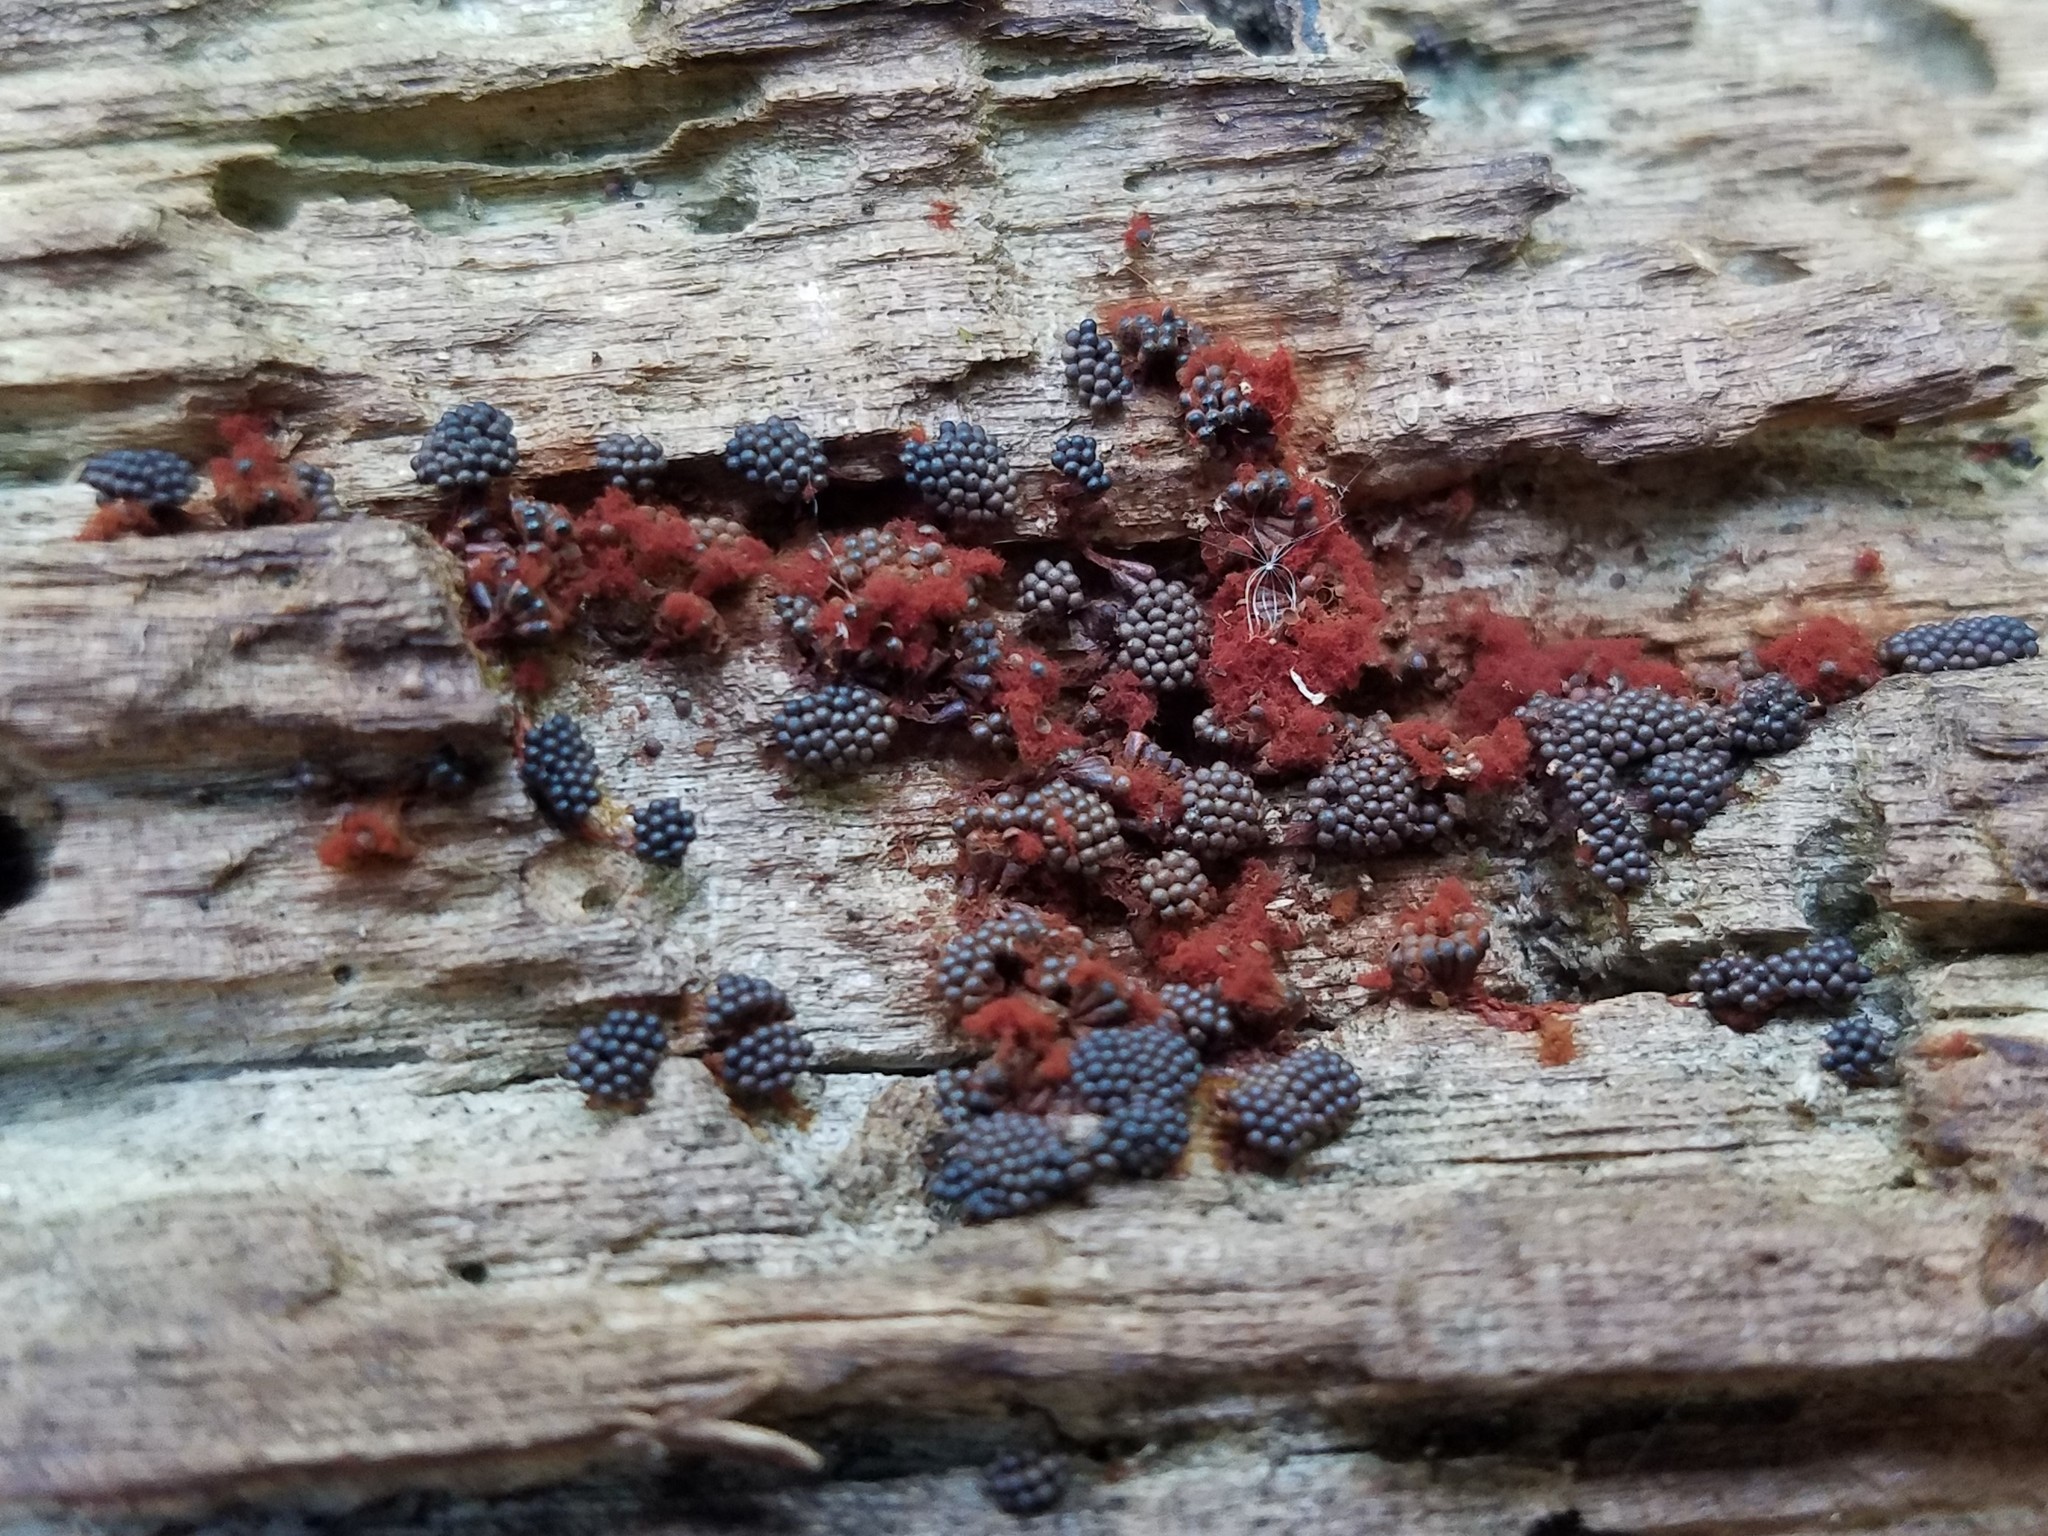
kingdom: Protozoa
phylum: Mycetozoa
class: Myxomycetes
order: Trichiales
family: Trichiaceae
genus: Metatrichia
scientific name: Metatrichia vesparia
